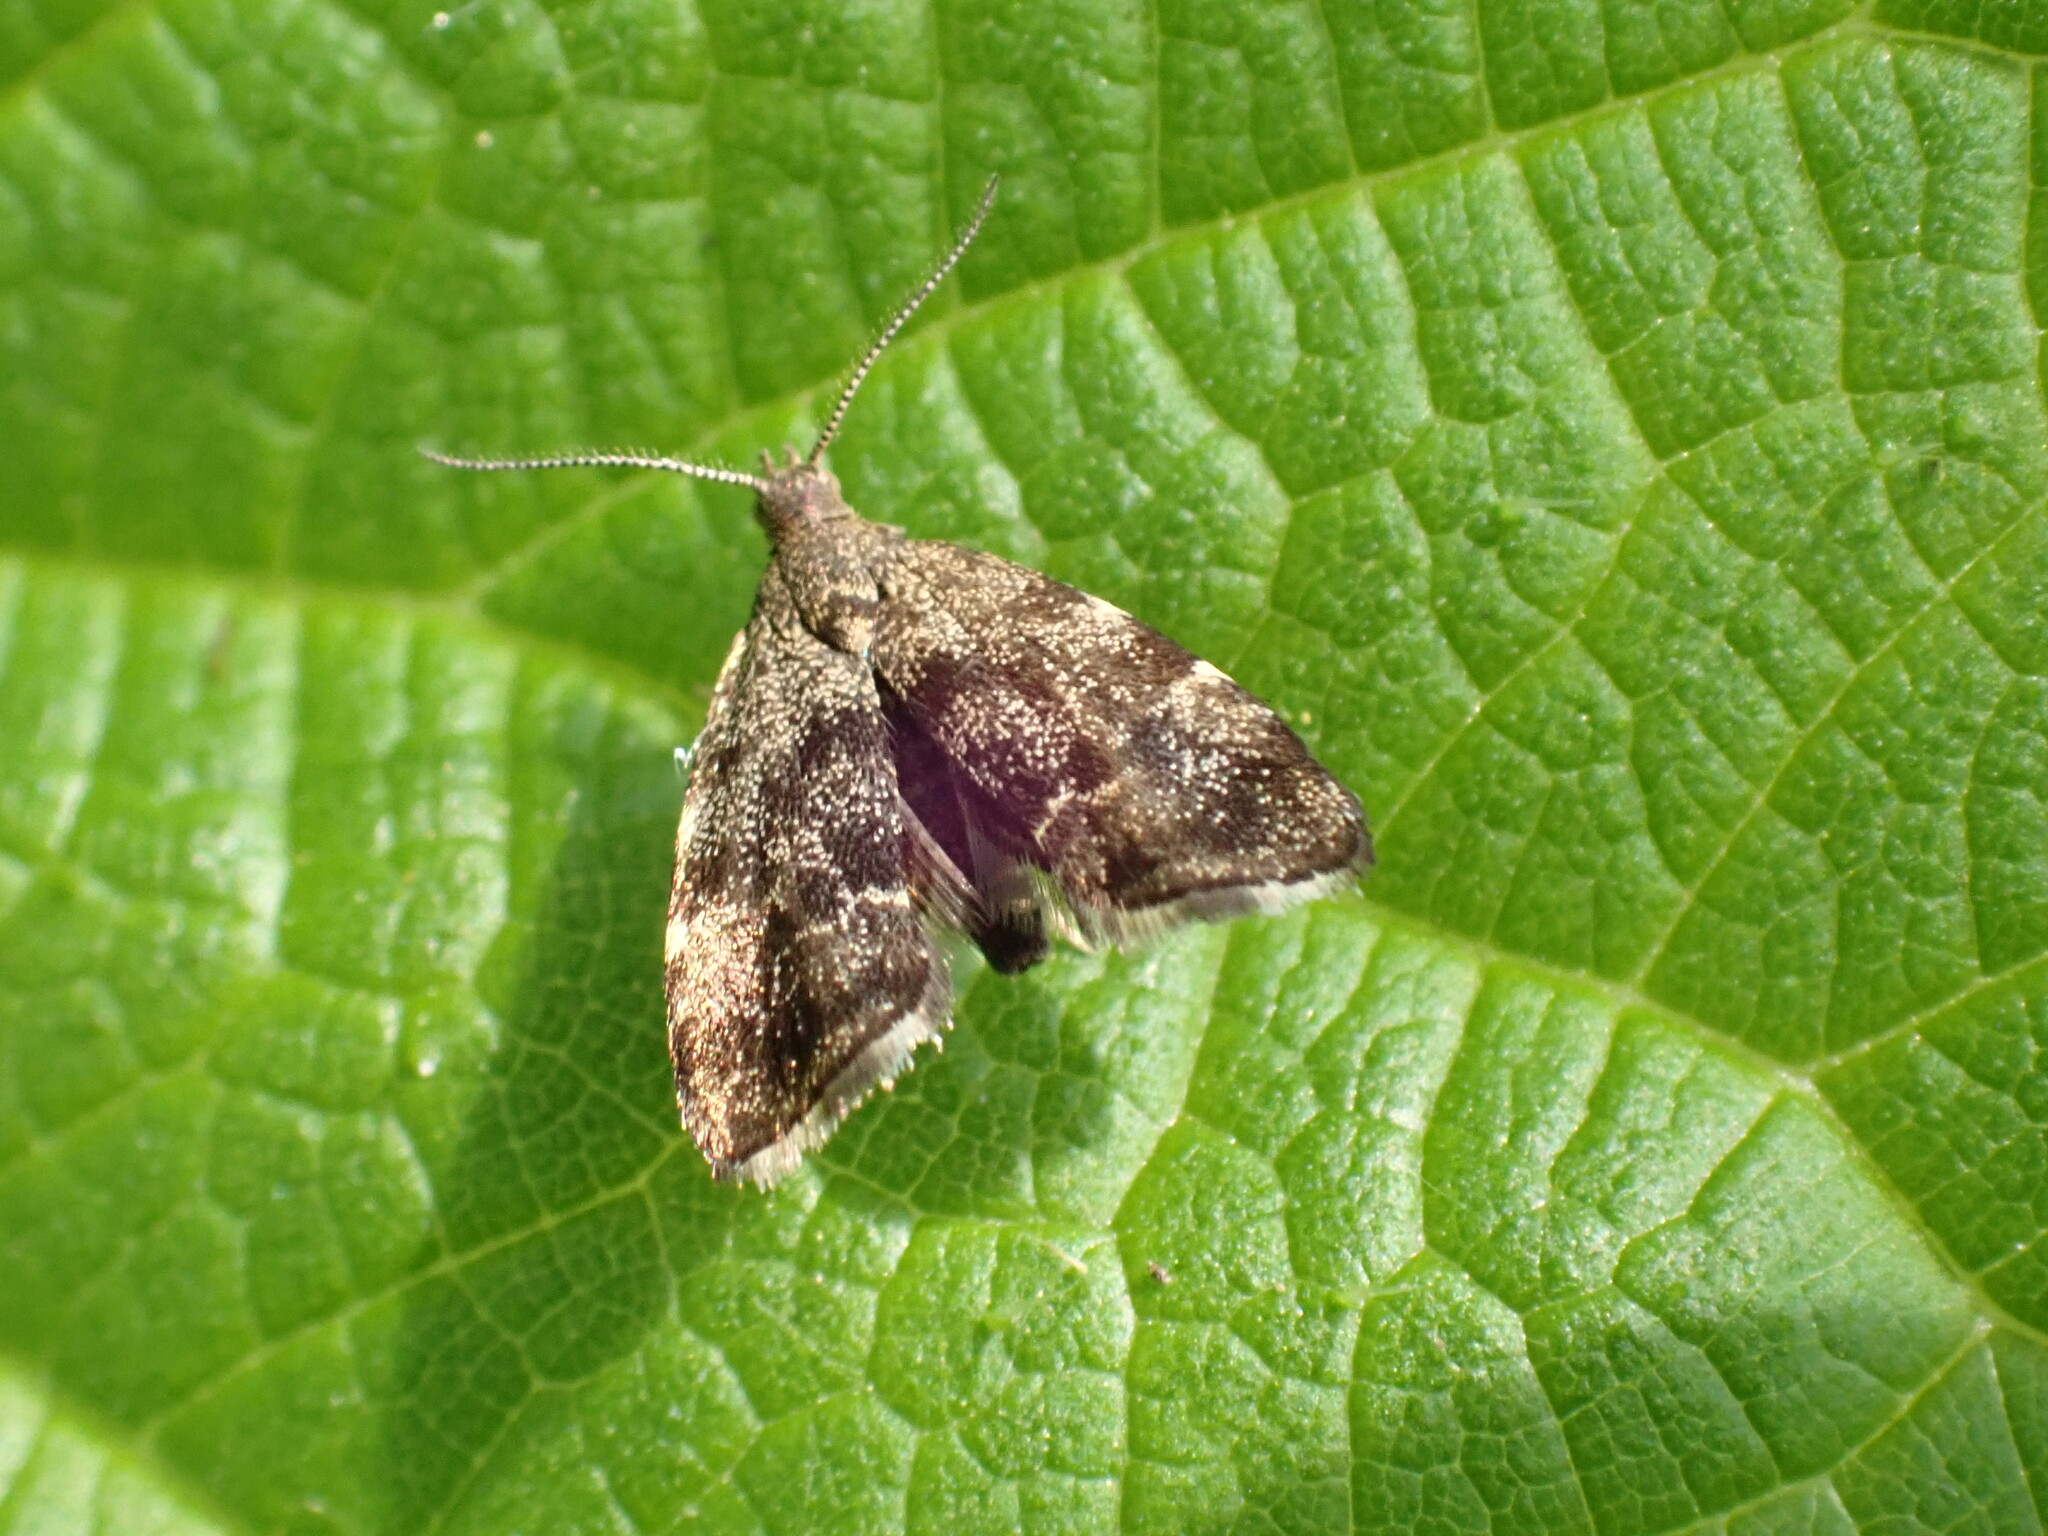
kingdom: Animalia
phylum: Arthropoda
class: Insecta
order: Lepidoptera
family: Choreutidae
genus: Anthophila
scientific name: Anthophila fabriciana
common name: Nettle-tap
